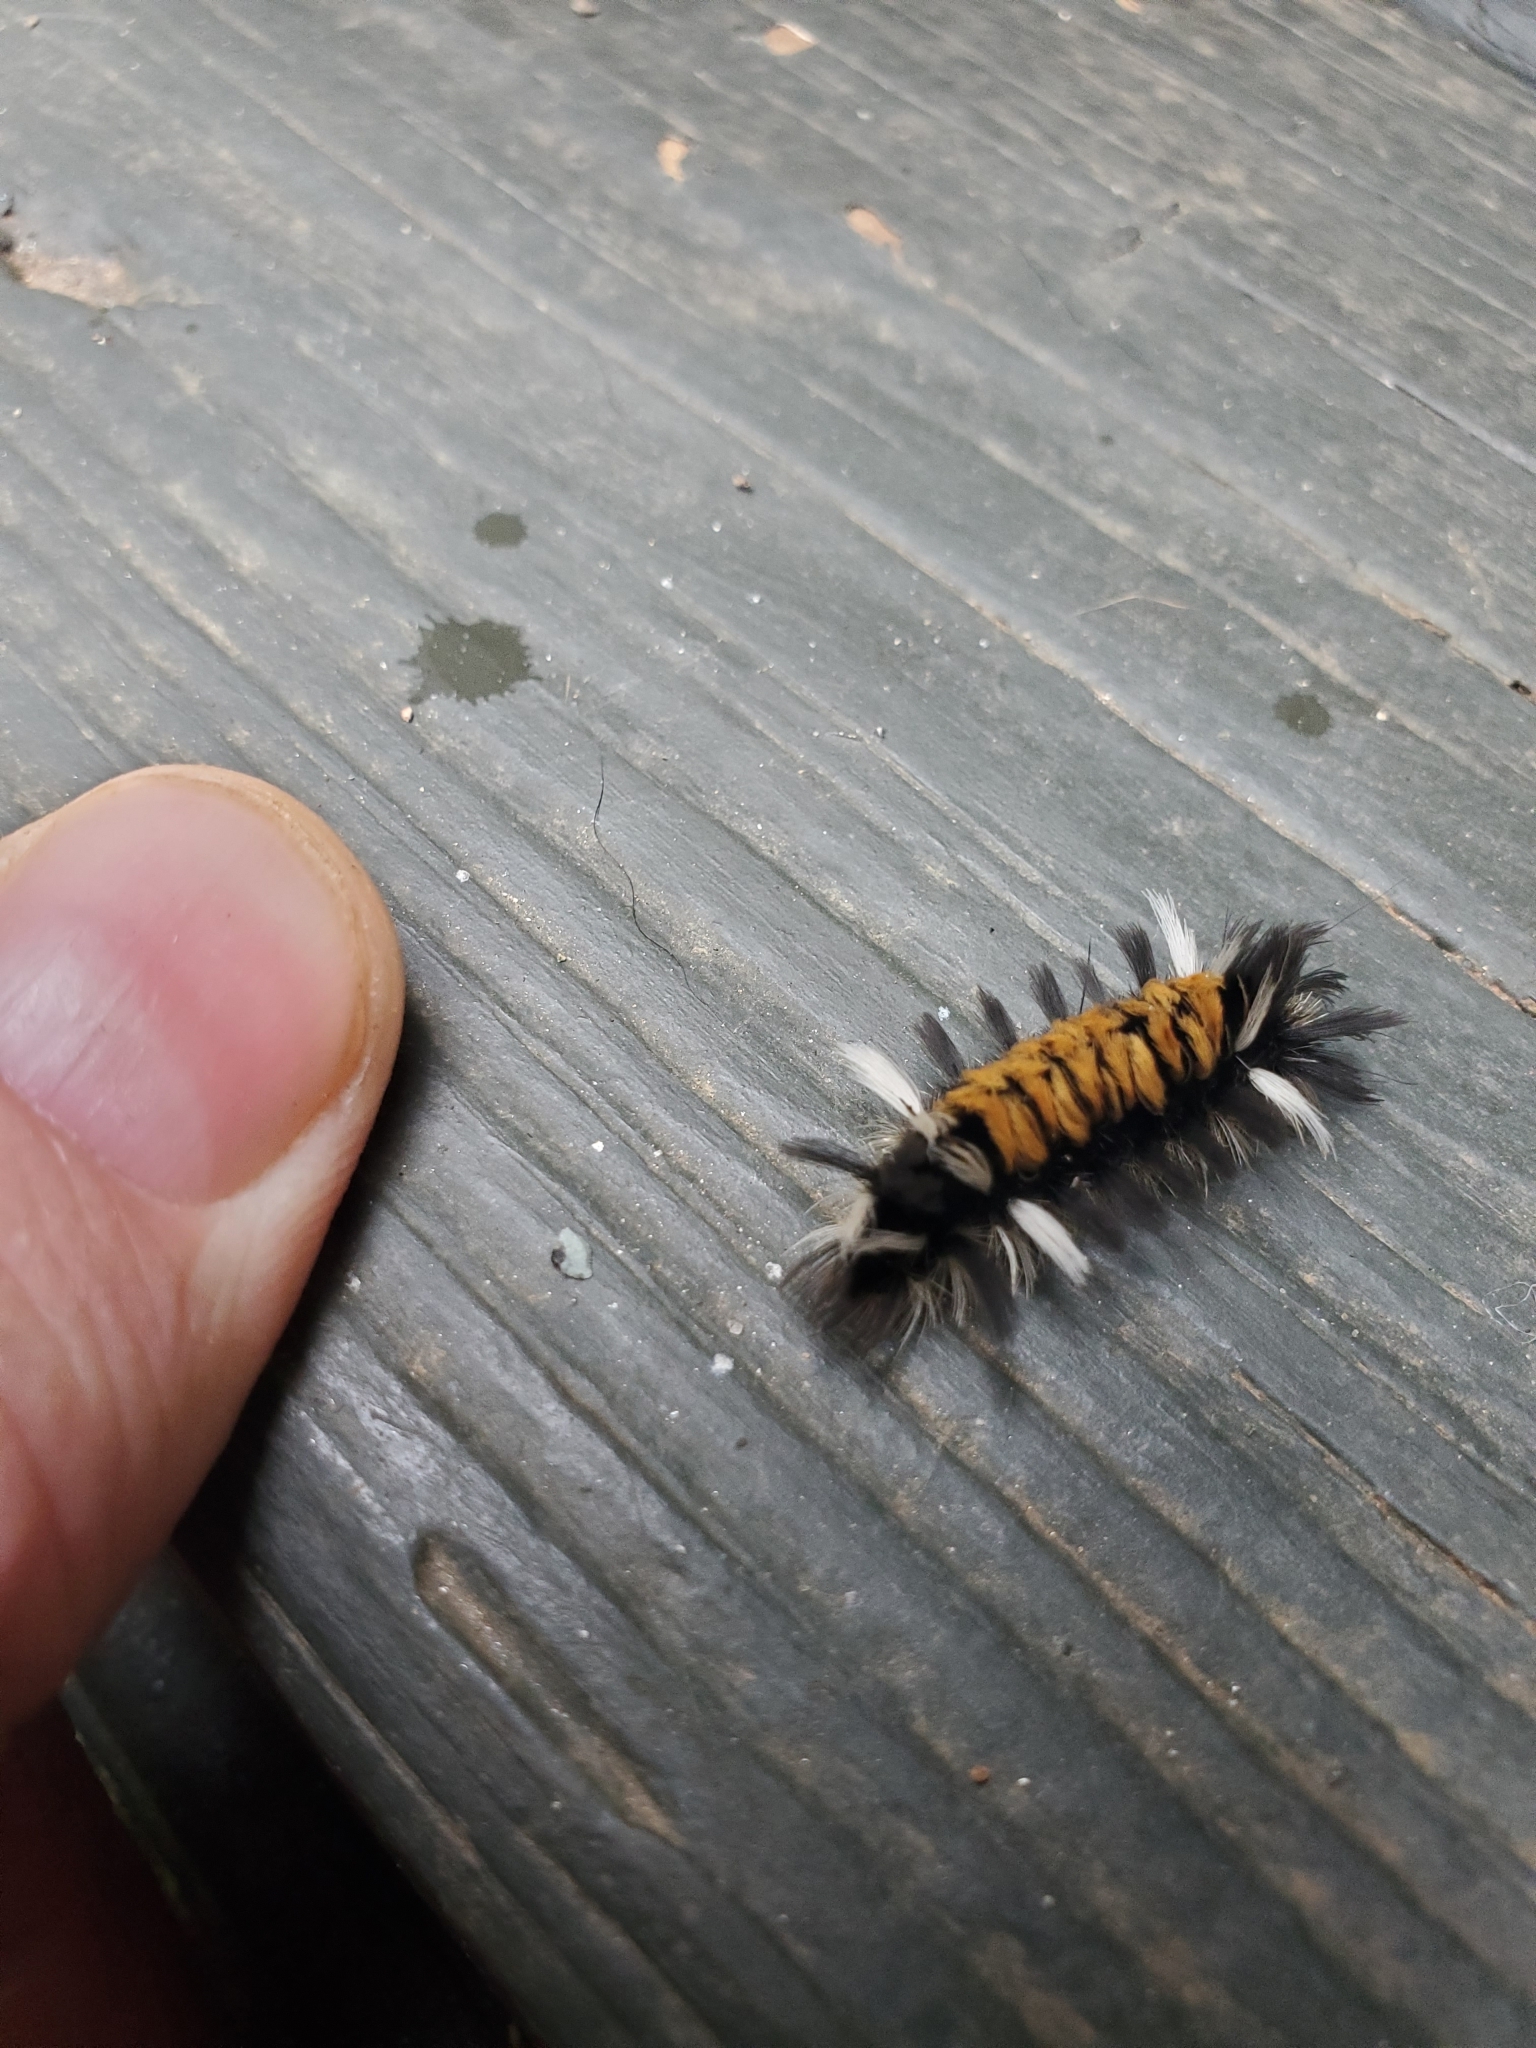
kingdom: Animalia
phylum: Arthropoda
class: Insecta
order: Lepidoptera
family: Erebidae
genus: Euchaetes
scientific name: Euchaetes egle
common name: Milkweed tussock moth
